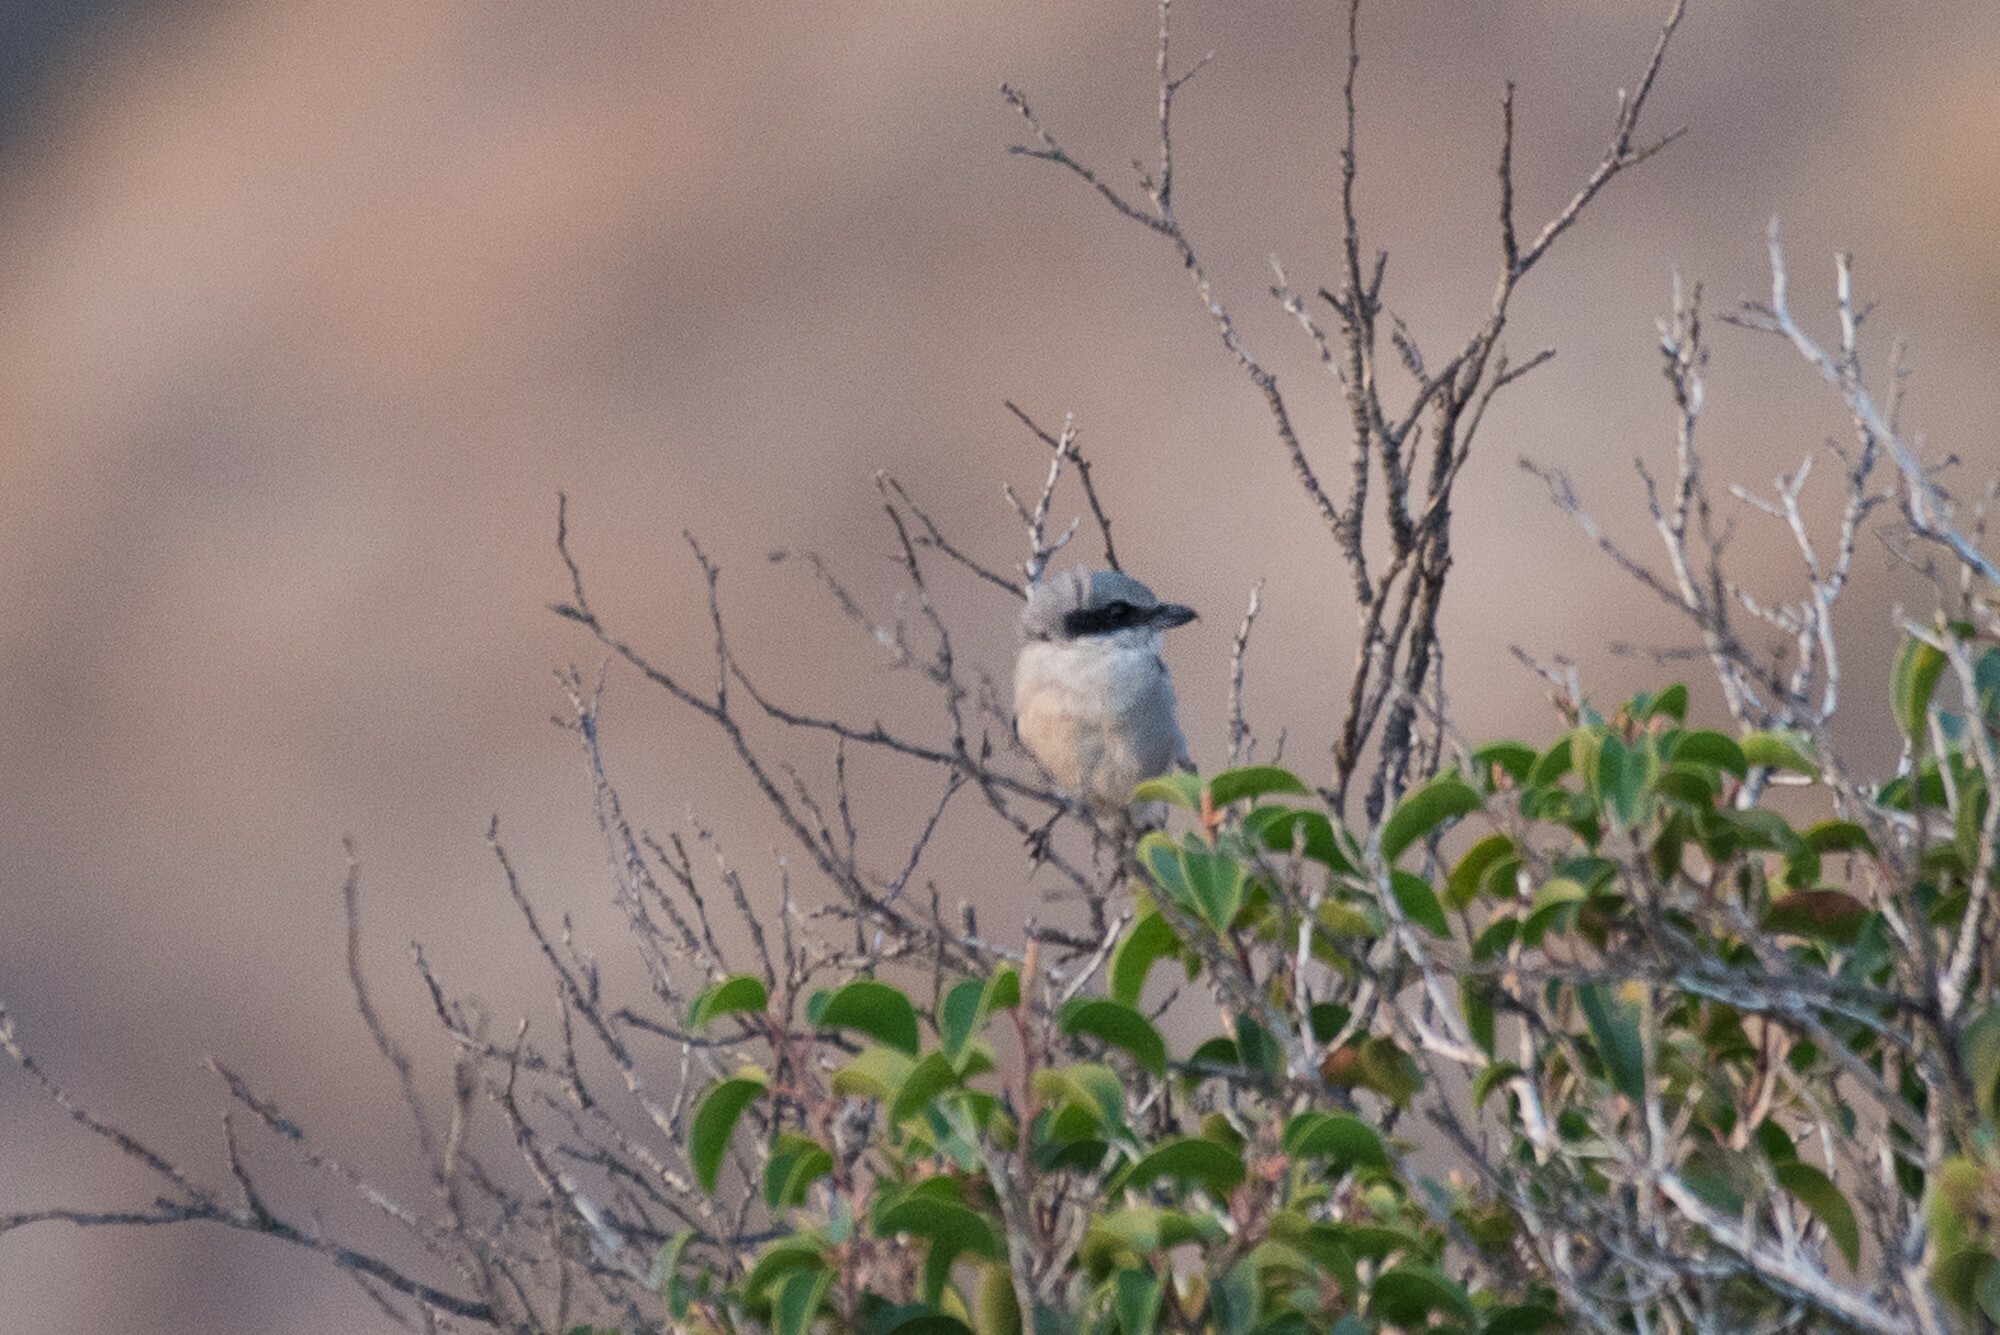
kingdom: Animalia
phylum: Chordata
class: Aves
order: Passeriformes
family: Laniidae
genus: Lanius
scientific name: Lanius ludovicianus
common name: Loggerhead shrike
